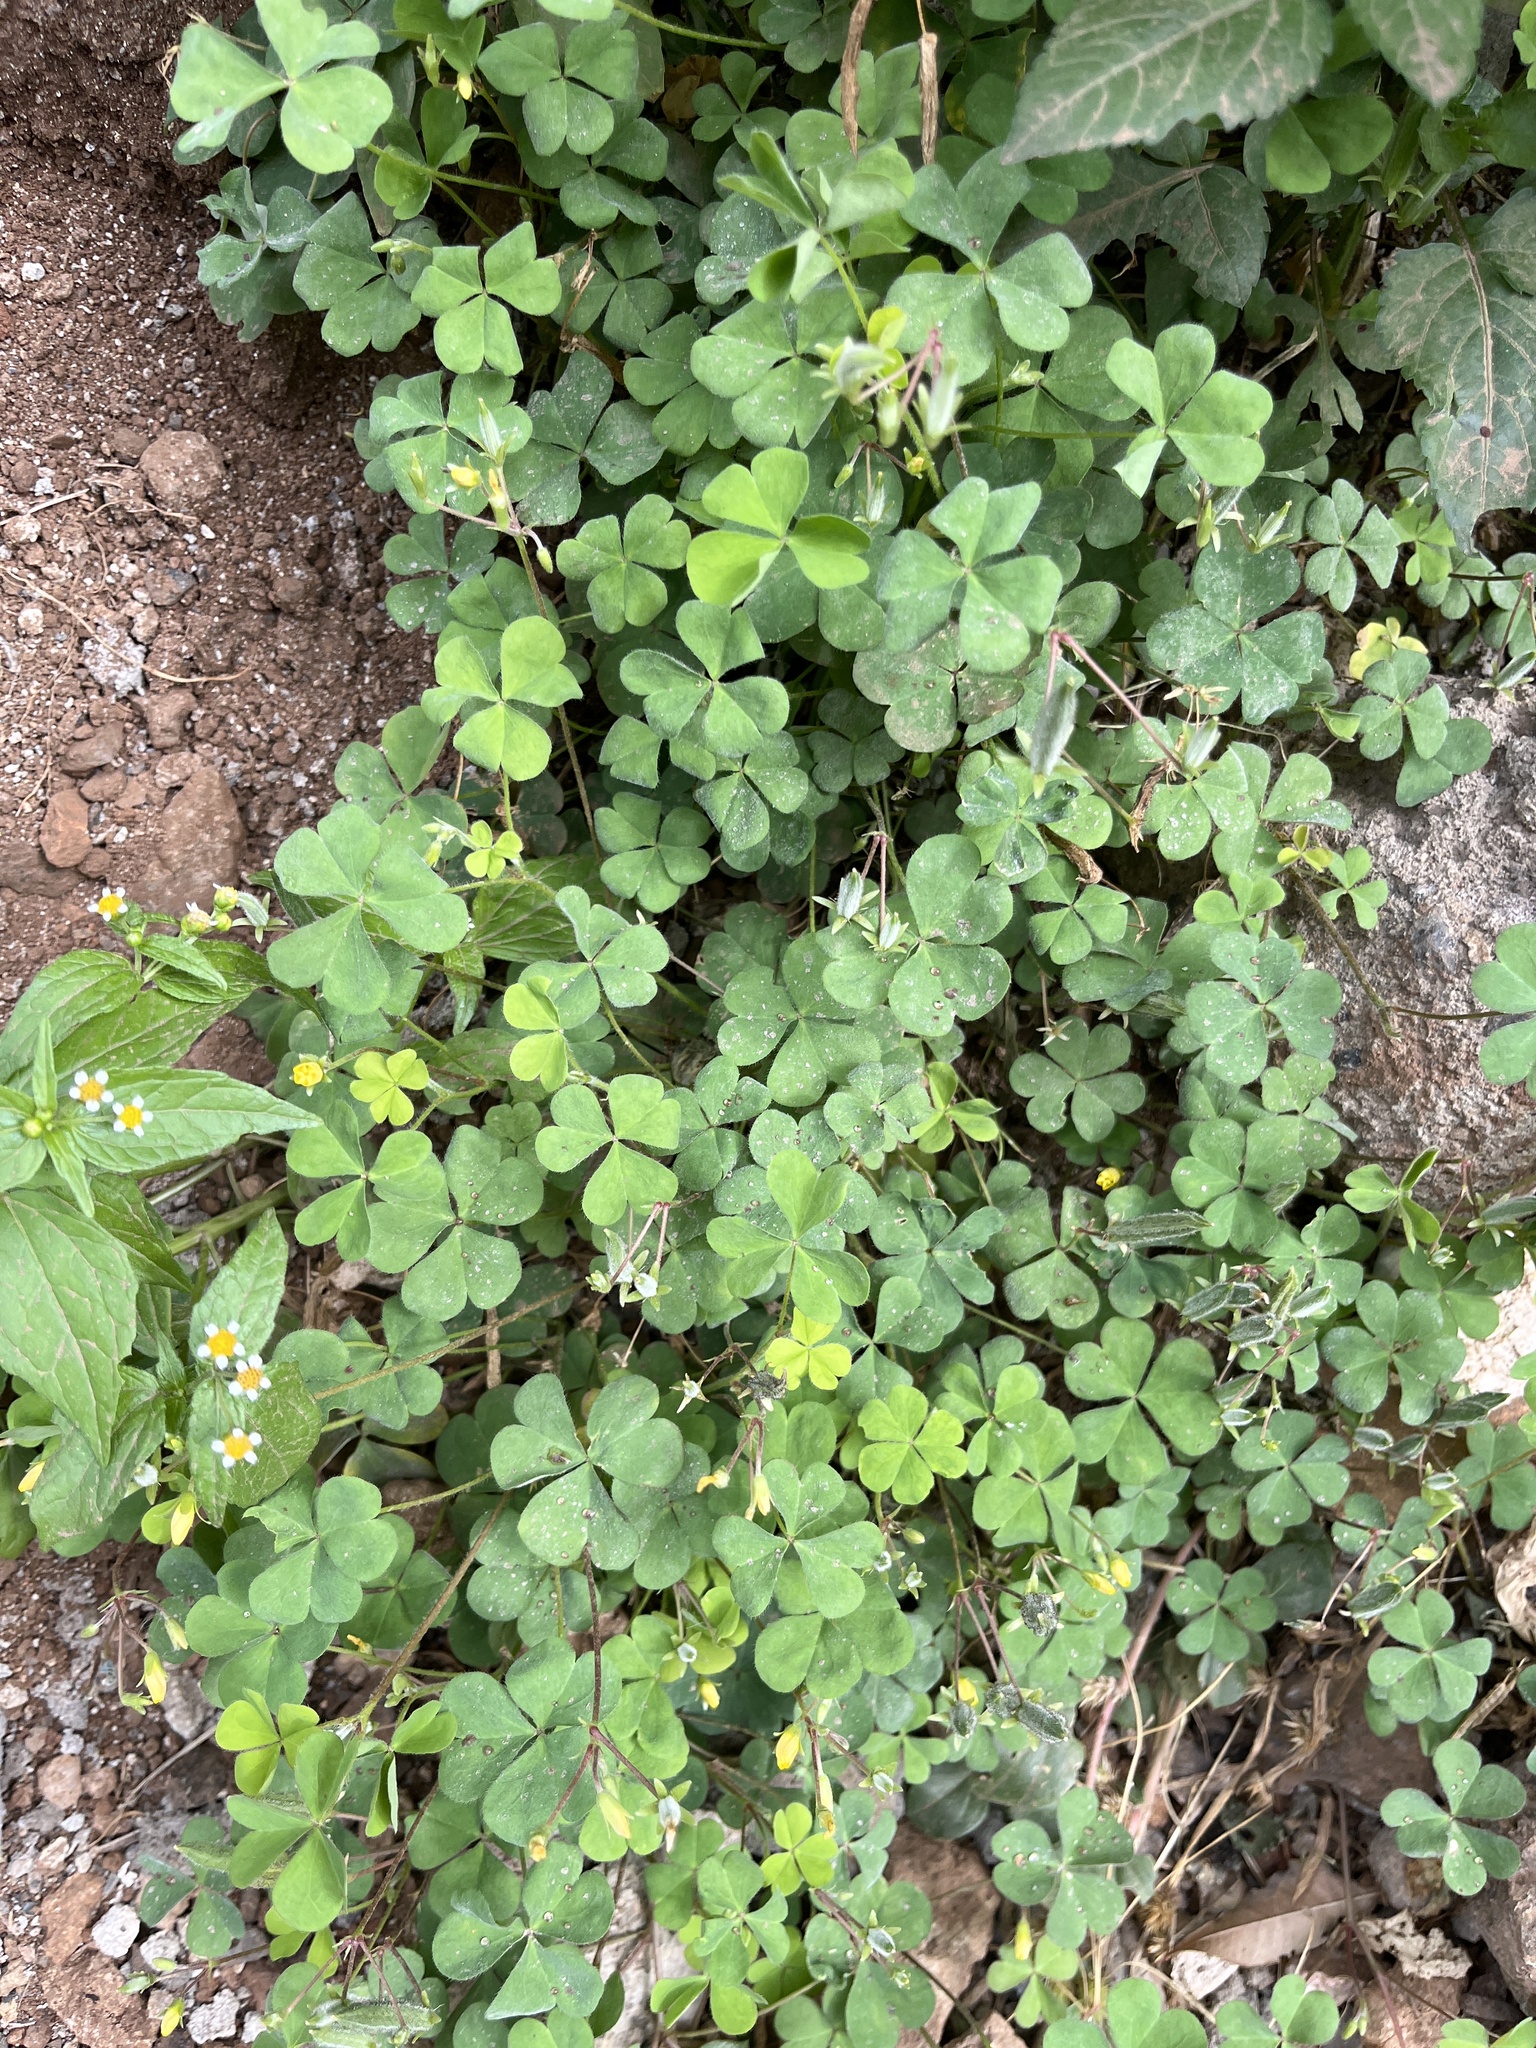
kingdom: Plantae
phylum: Tracheophyta
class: Magnoliopsida
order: Oxalidales
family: Oxalidaceae
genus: Oxalis
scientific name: Oxalis corniculata
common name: Procumbent yellow-sorrel
